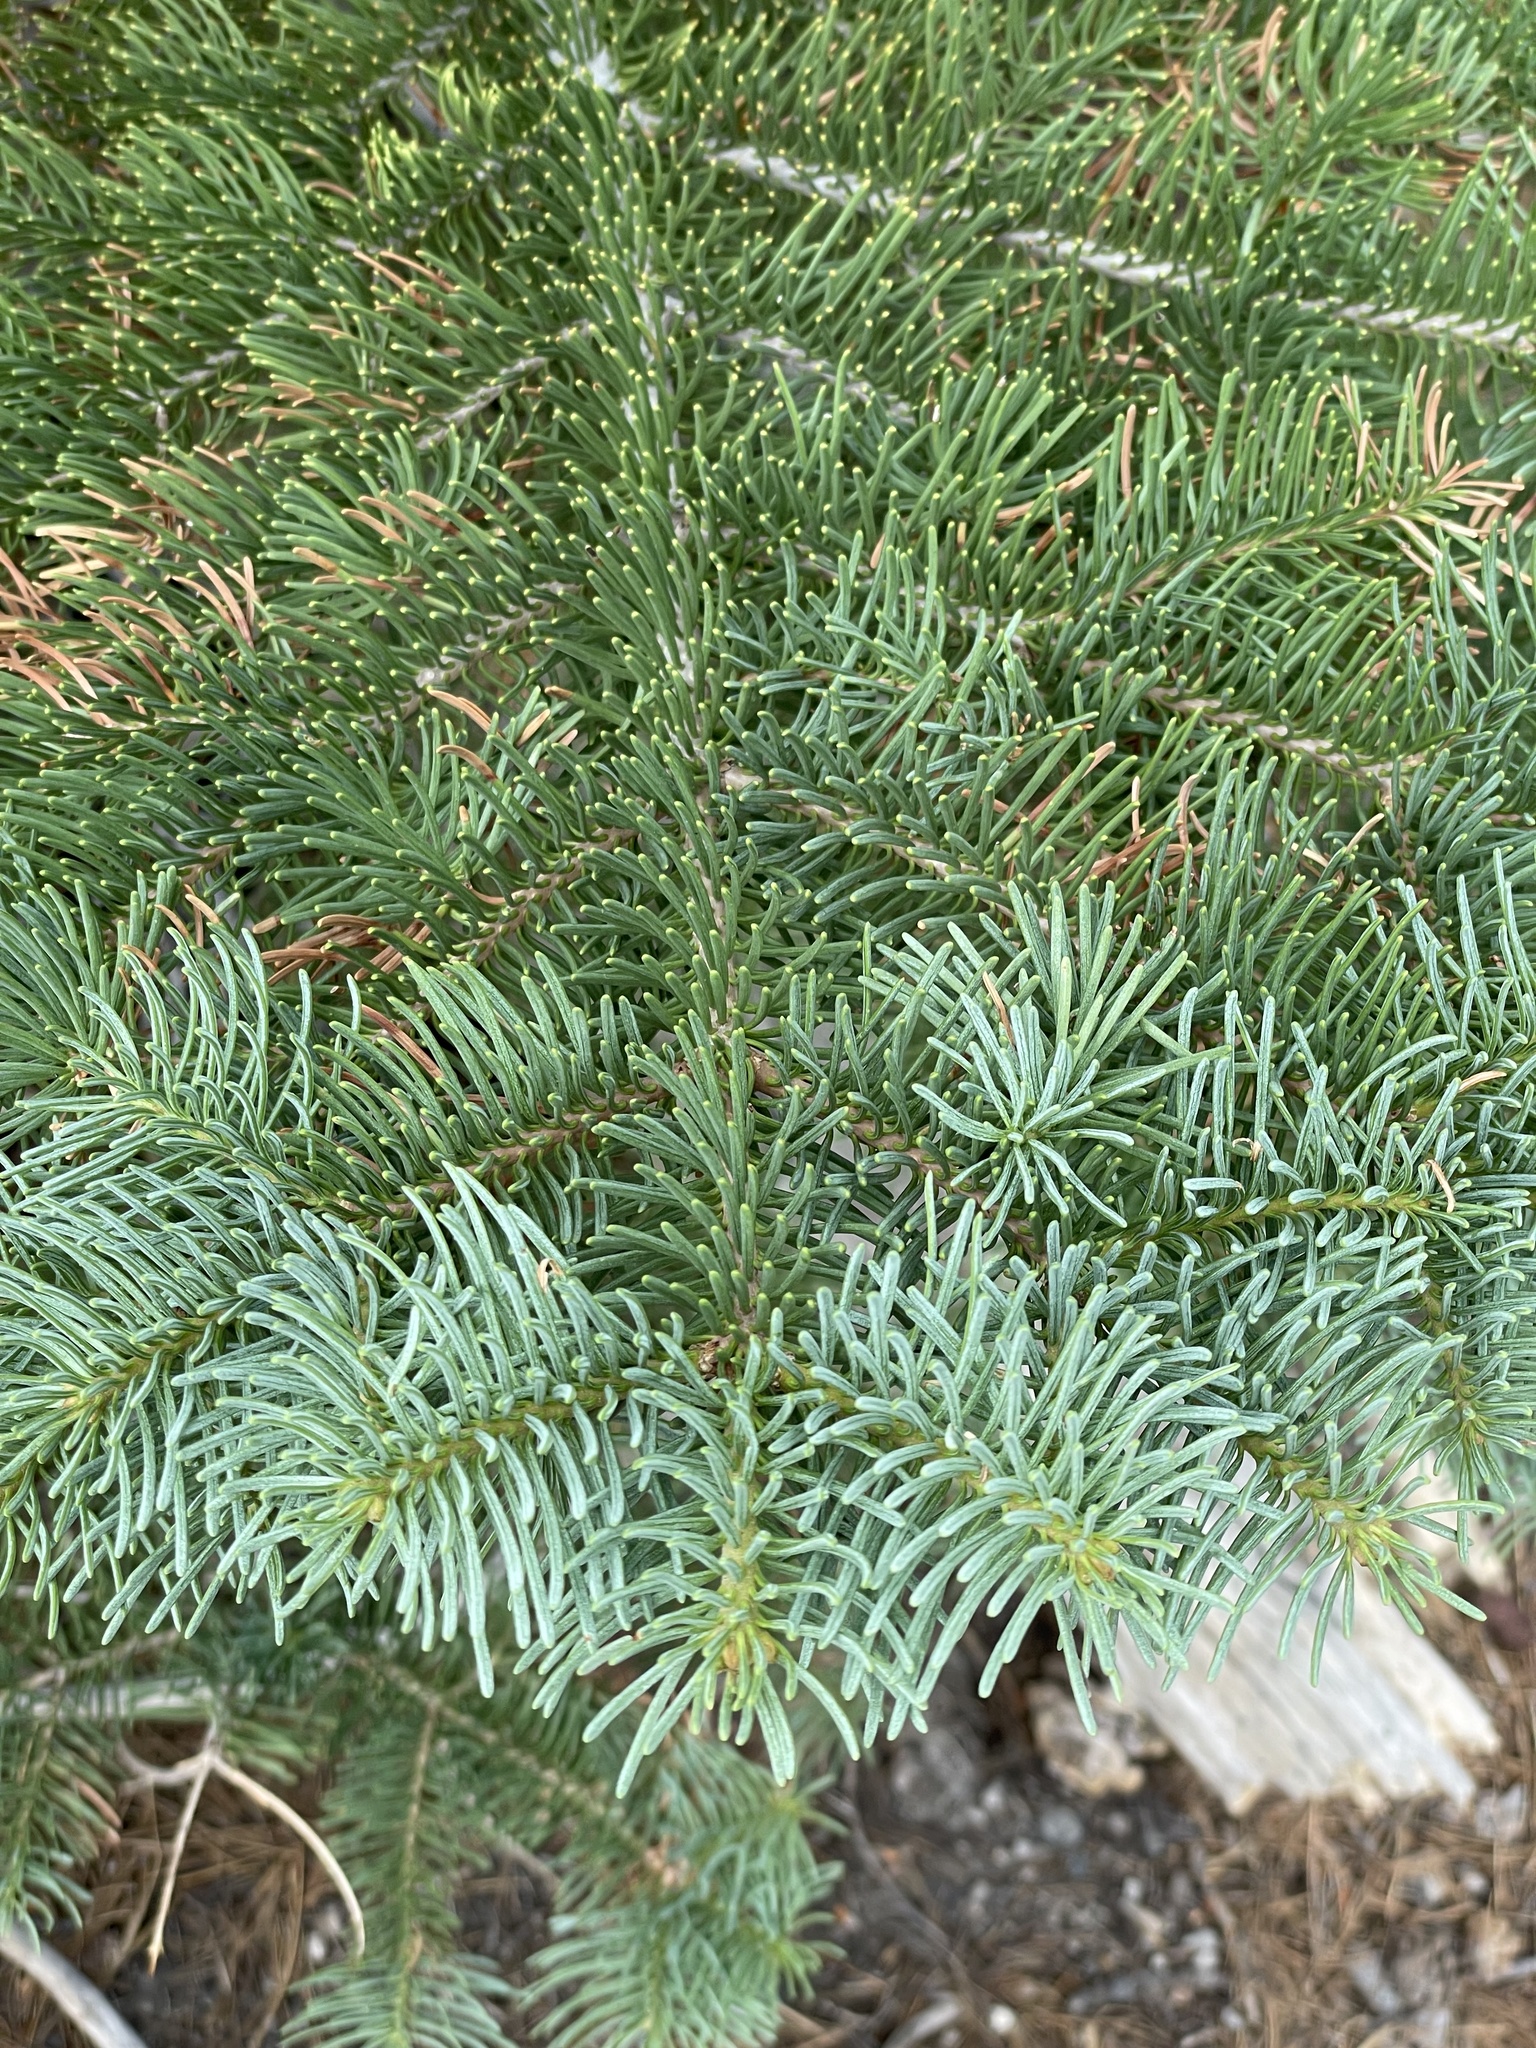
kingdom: Plantae
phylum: Tracheophyta
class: Pinopsida
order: Pinales
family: Pinaceae
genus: Abies
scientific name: Abies magnifica bis
